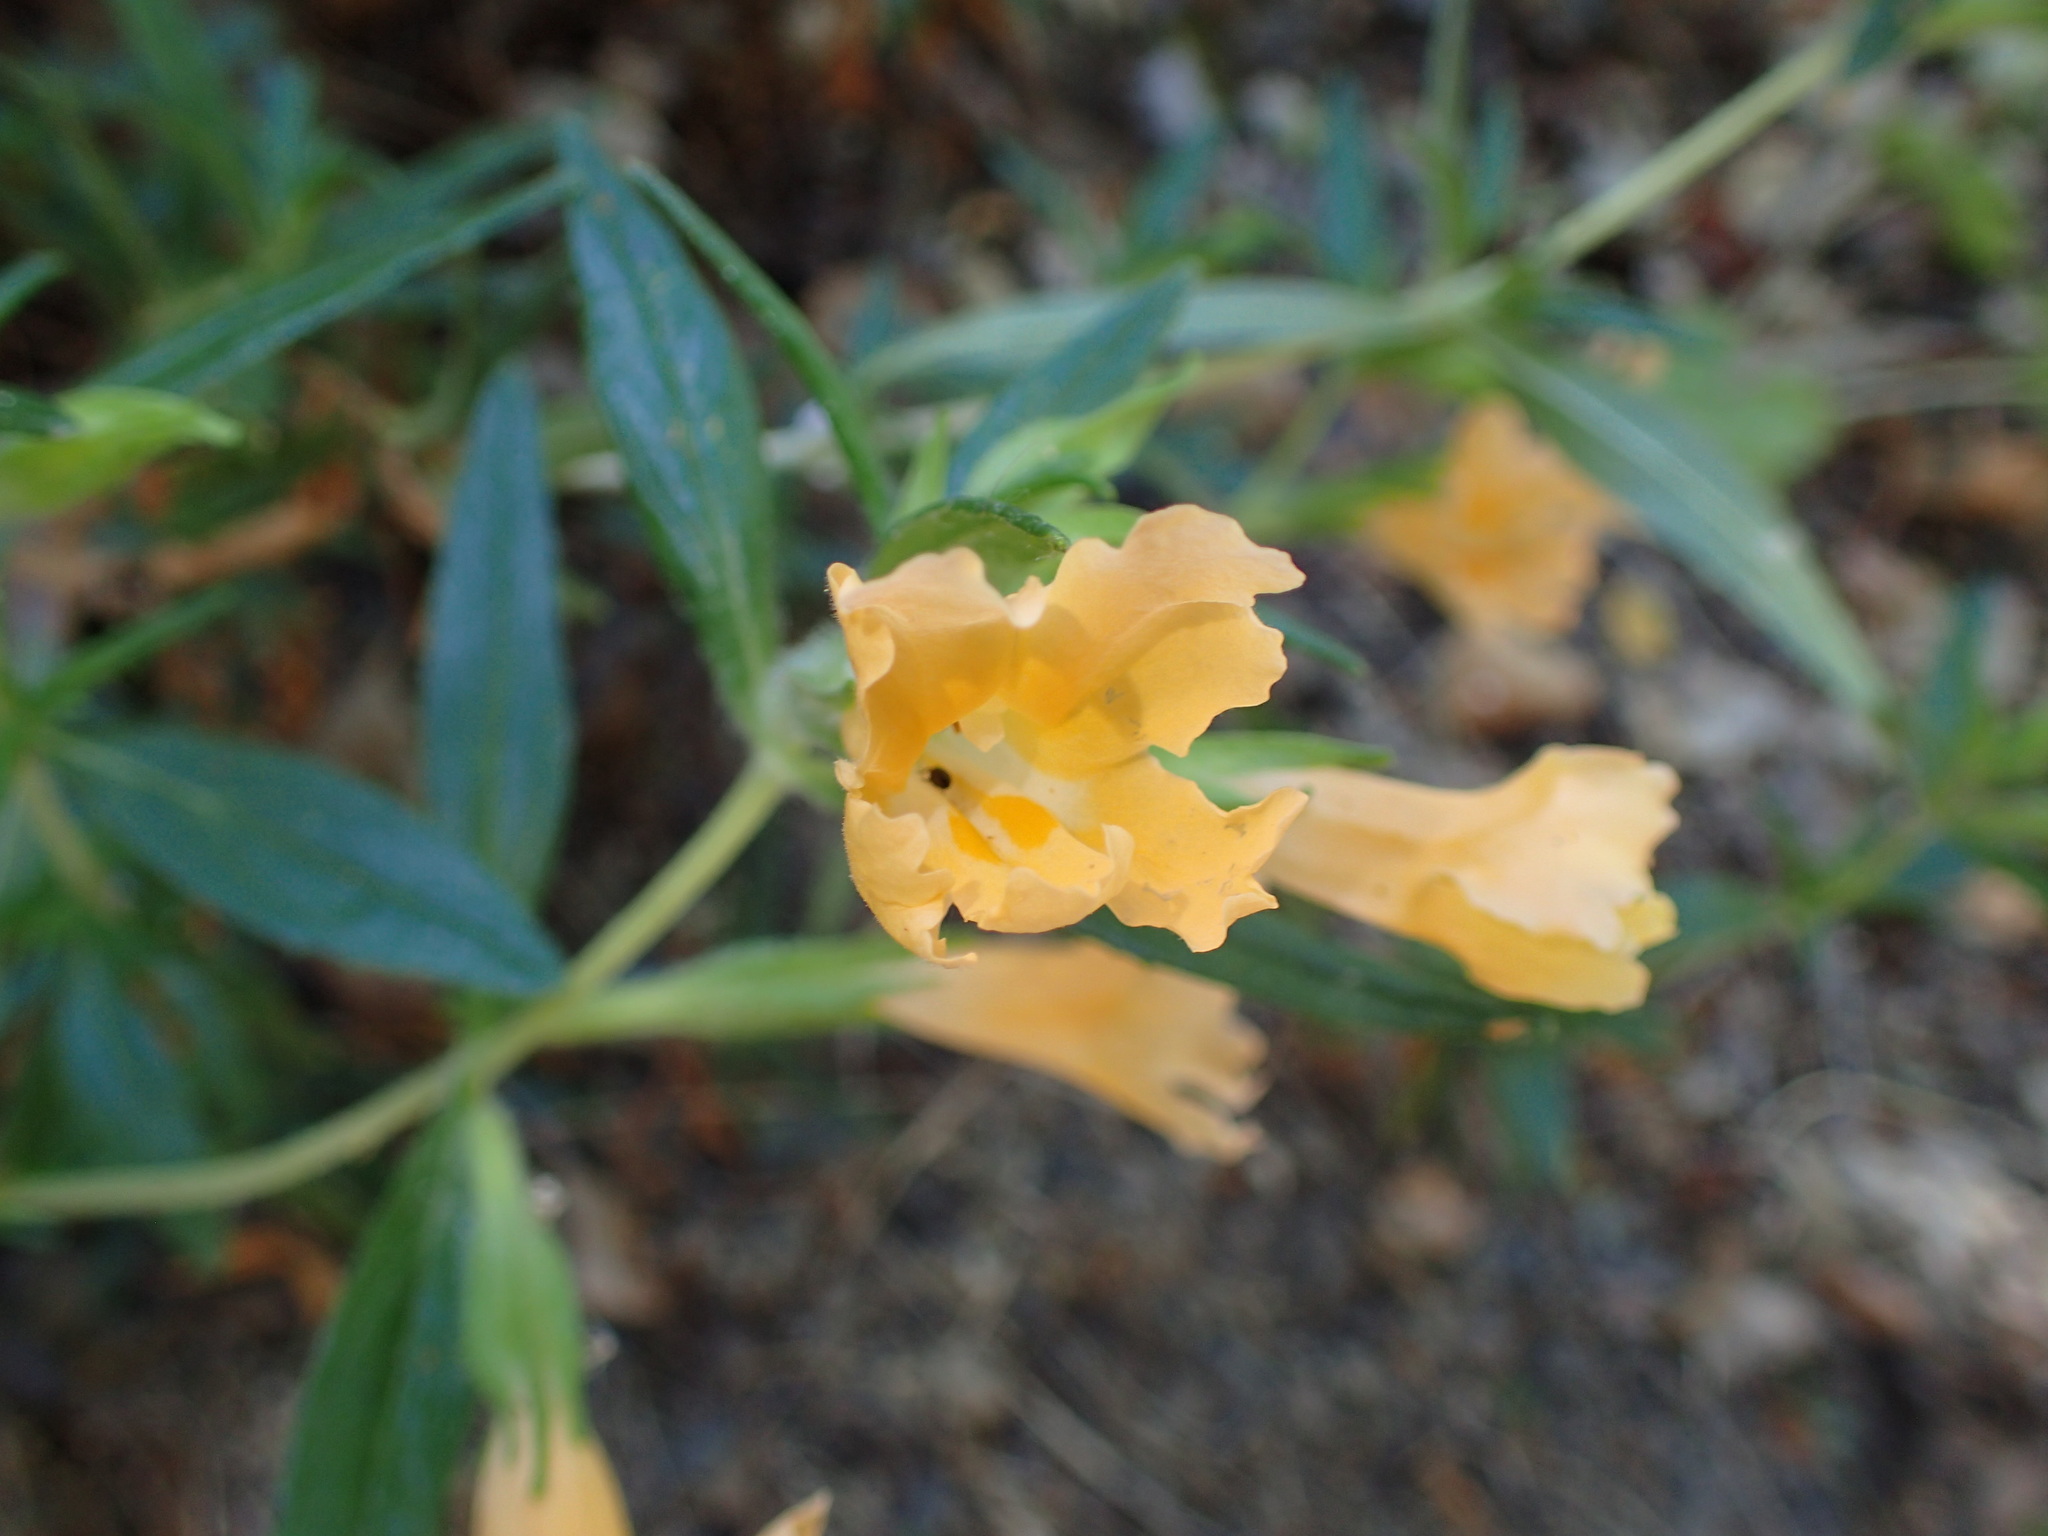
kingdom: Plantae
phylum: Tracheophyta
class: Magnoliopsida
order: Lamiales
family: Phrymaceae
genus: Diplacus
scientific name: Diplacus longiflorus
